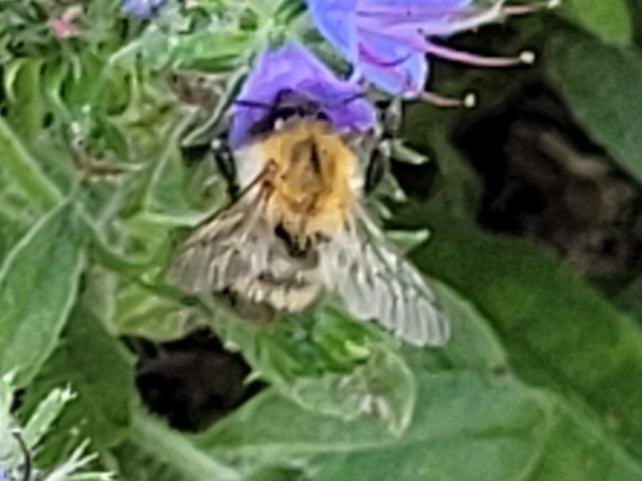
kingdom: Animalia
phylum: Arthropoda
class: Insecta
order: Hymenoptera
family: Apidae
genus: Bombus
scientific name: Bombus pascuorum
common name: Common carder bee
